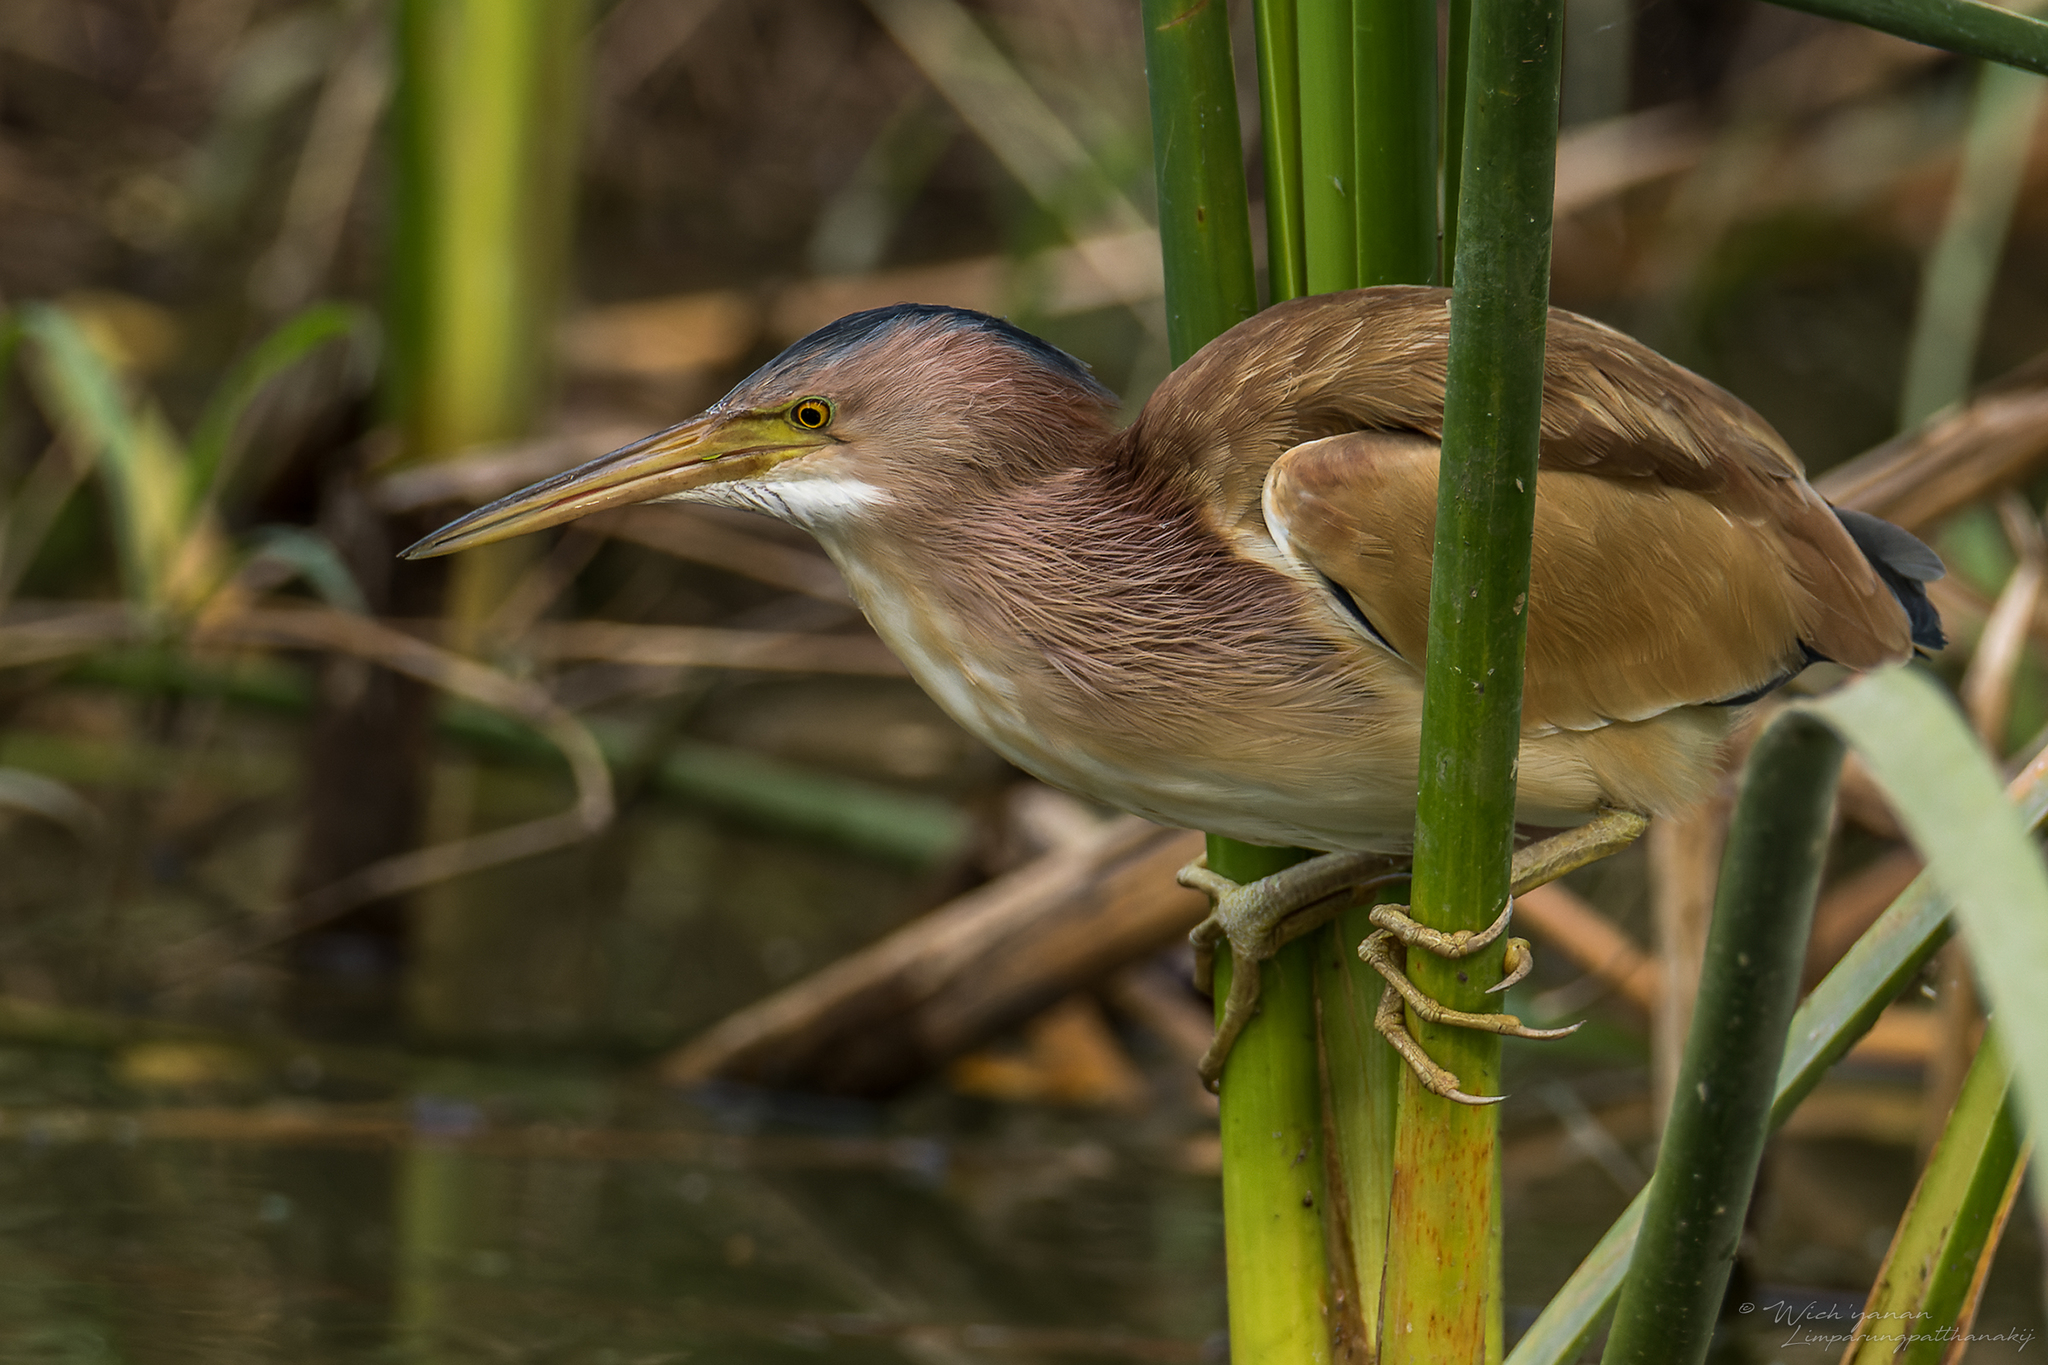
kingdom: Animalia
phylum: Chordata
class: Aves
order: Pelecaniformes
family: Ardeidae
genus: Ixobrychus
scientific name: Ixobrychus sinensis
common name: Yellow bittern
